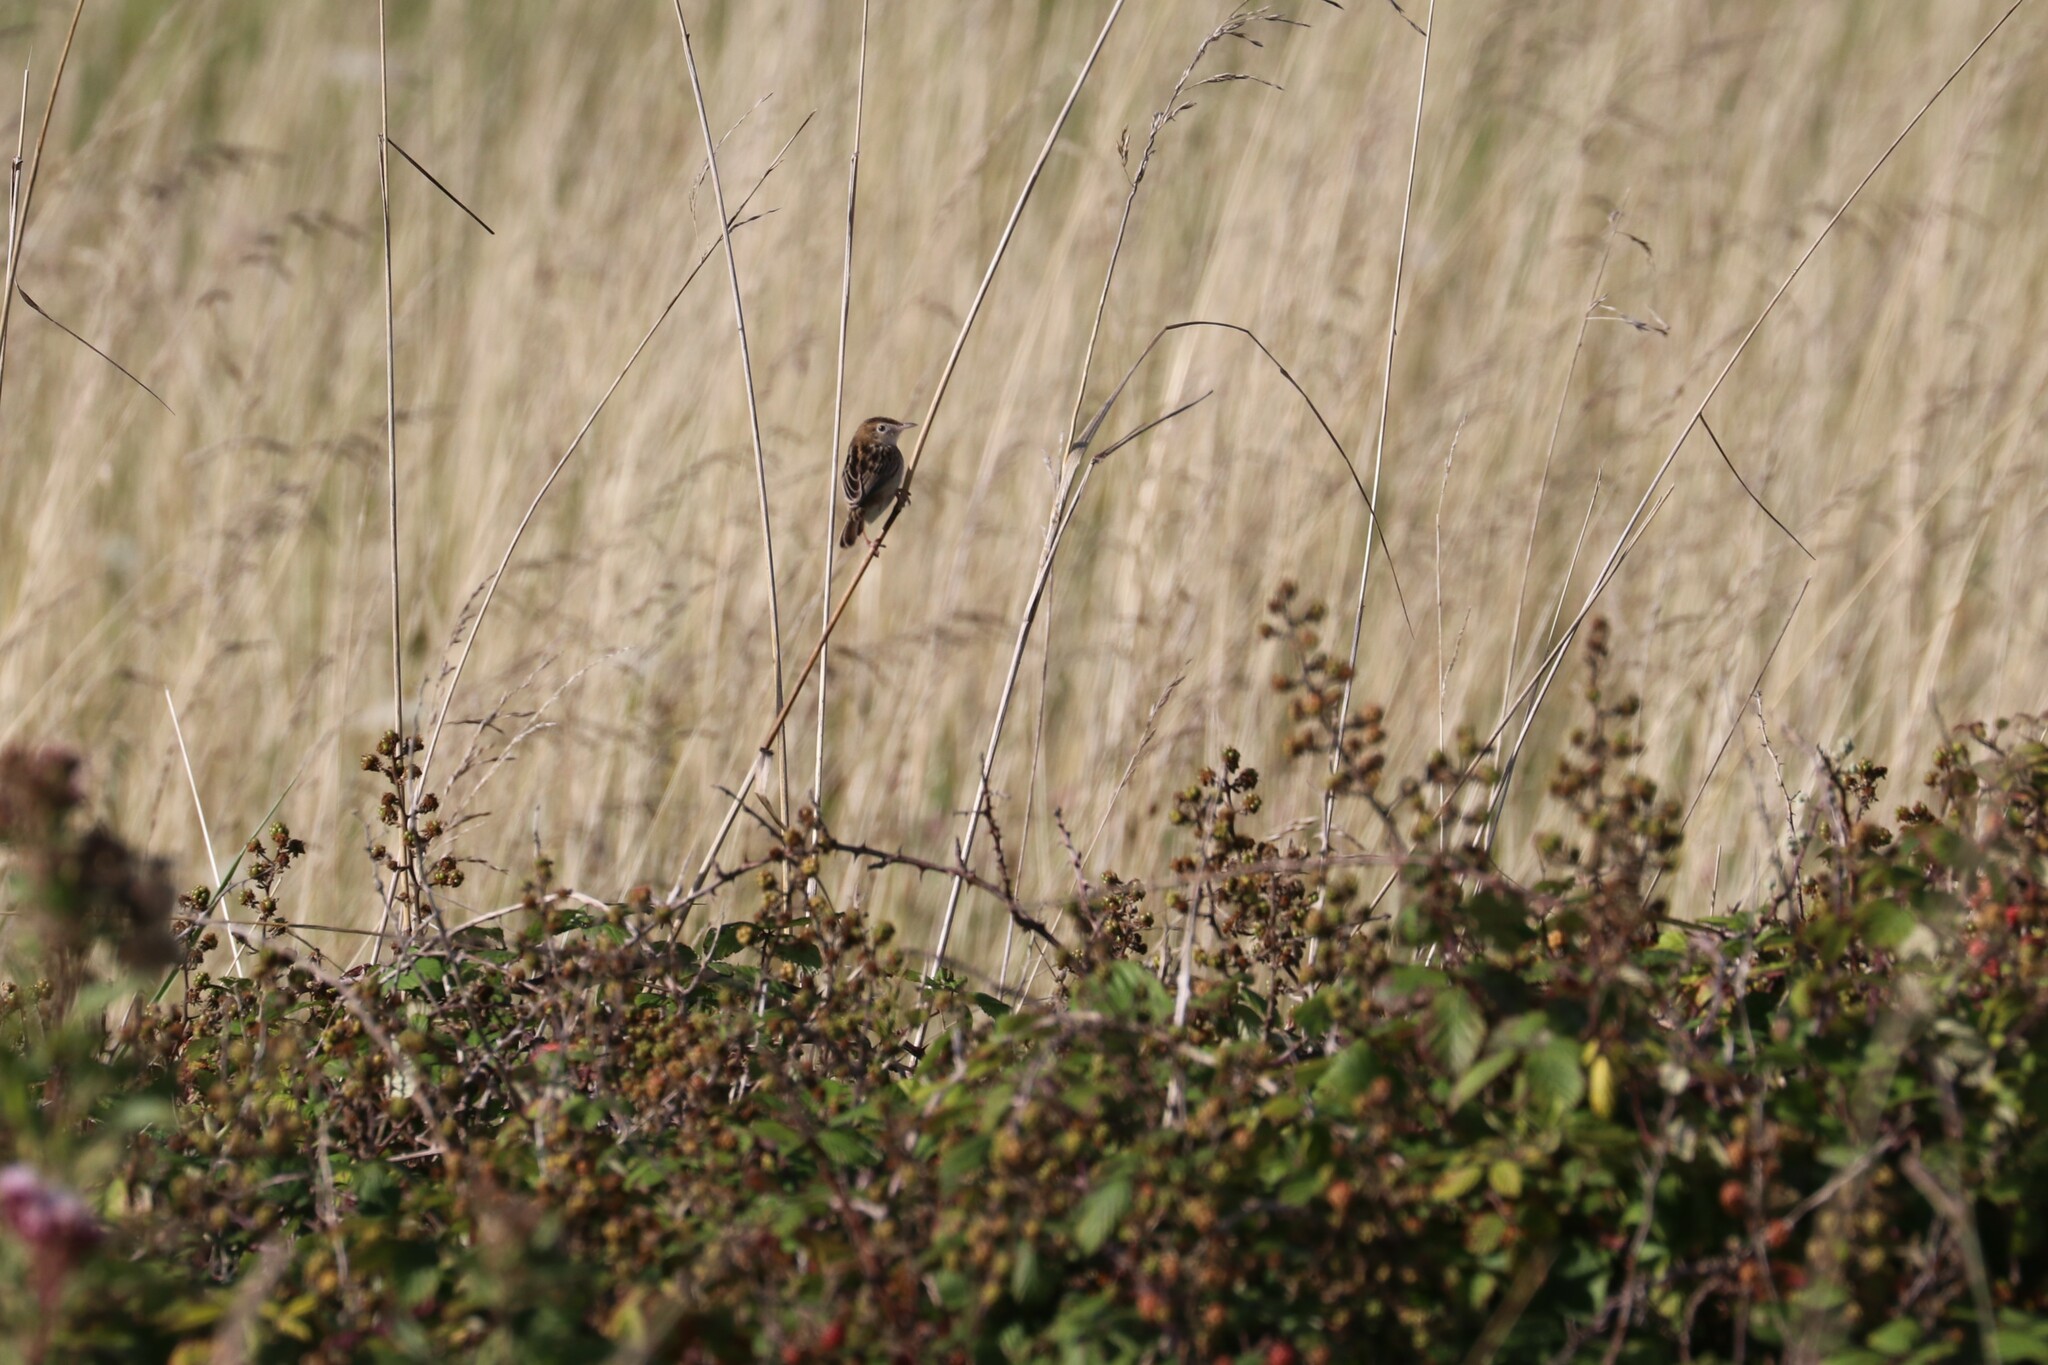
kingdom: Animalia
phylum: Chordata
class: Aves
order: Passeriformes
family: Cisticolidae
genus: Cisticola
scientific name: Cisticola juncidis
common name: Zitting cisticola
